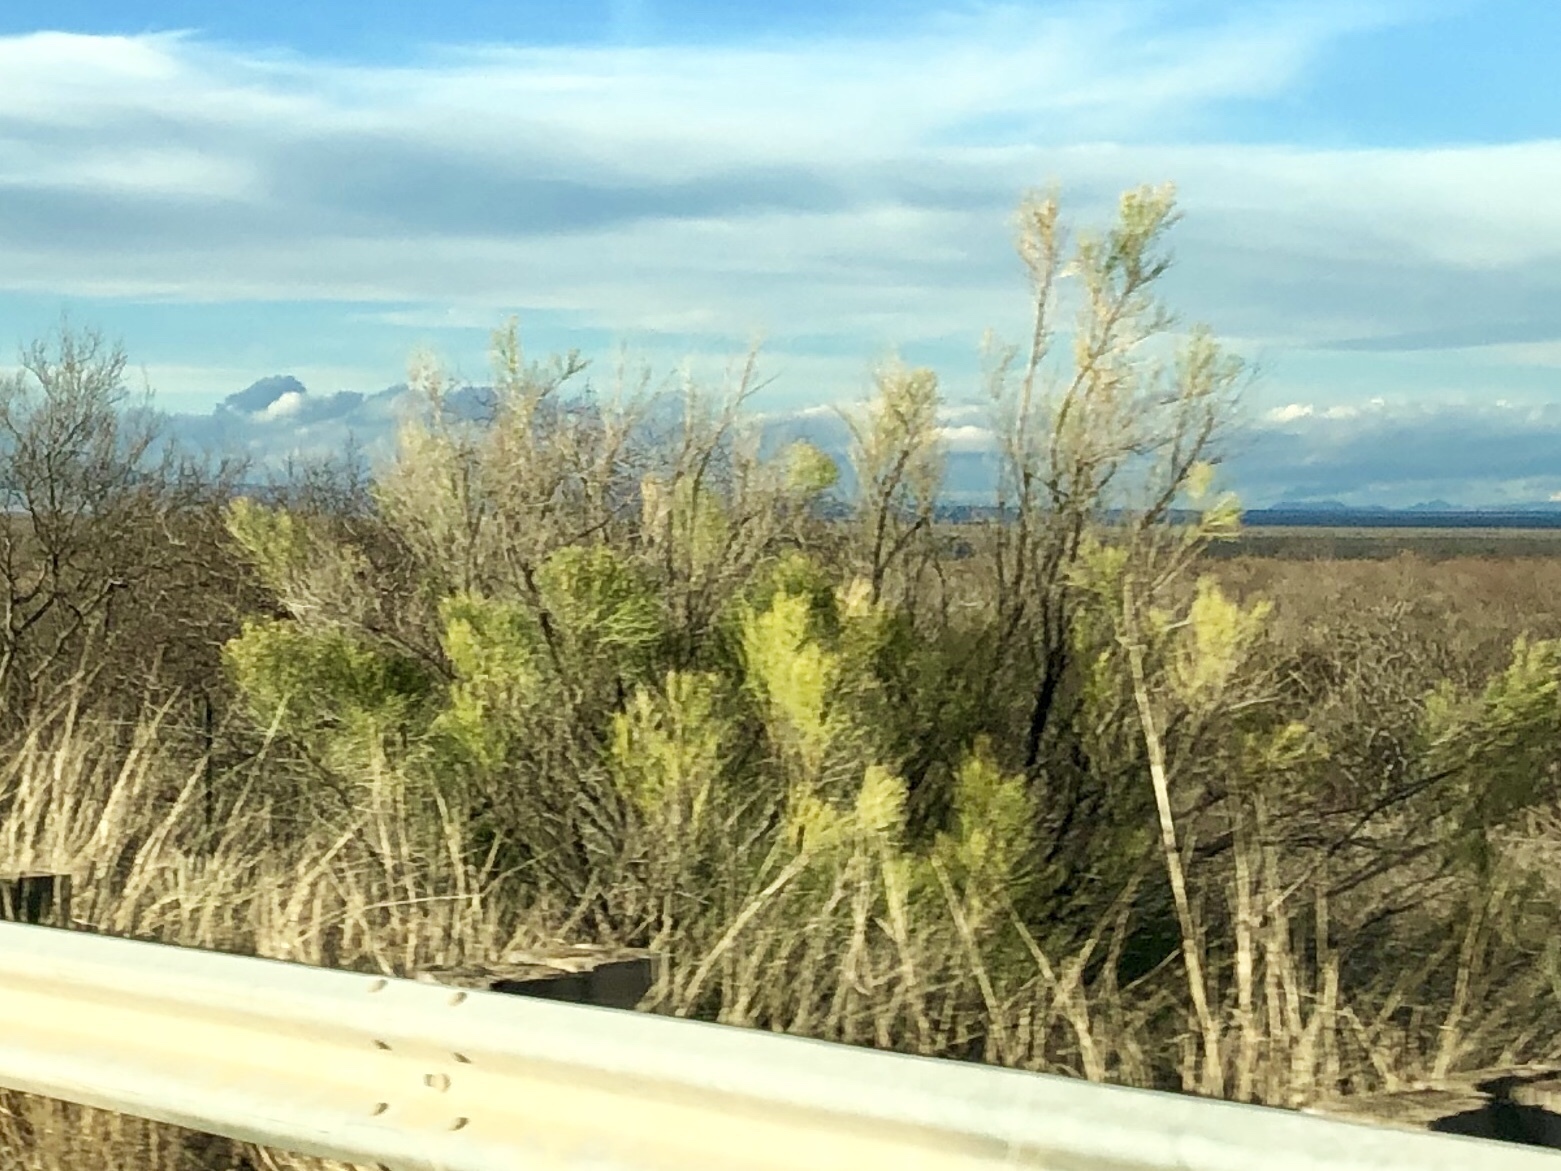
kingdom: Plantae
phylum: Tracheophyta
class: Magnoliopsida
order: Asterales
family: Asteraceae
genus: Baccharis
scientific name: Baccharis sarothroides
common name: Desert-broom
